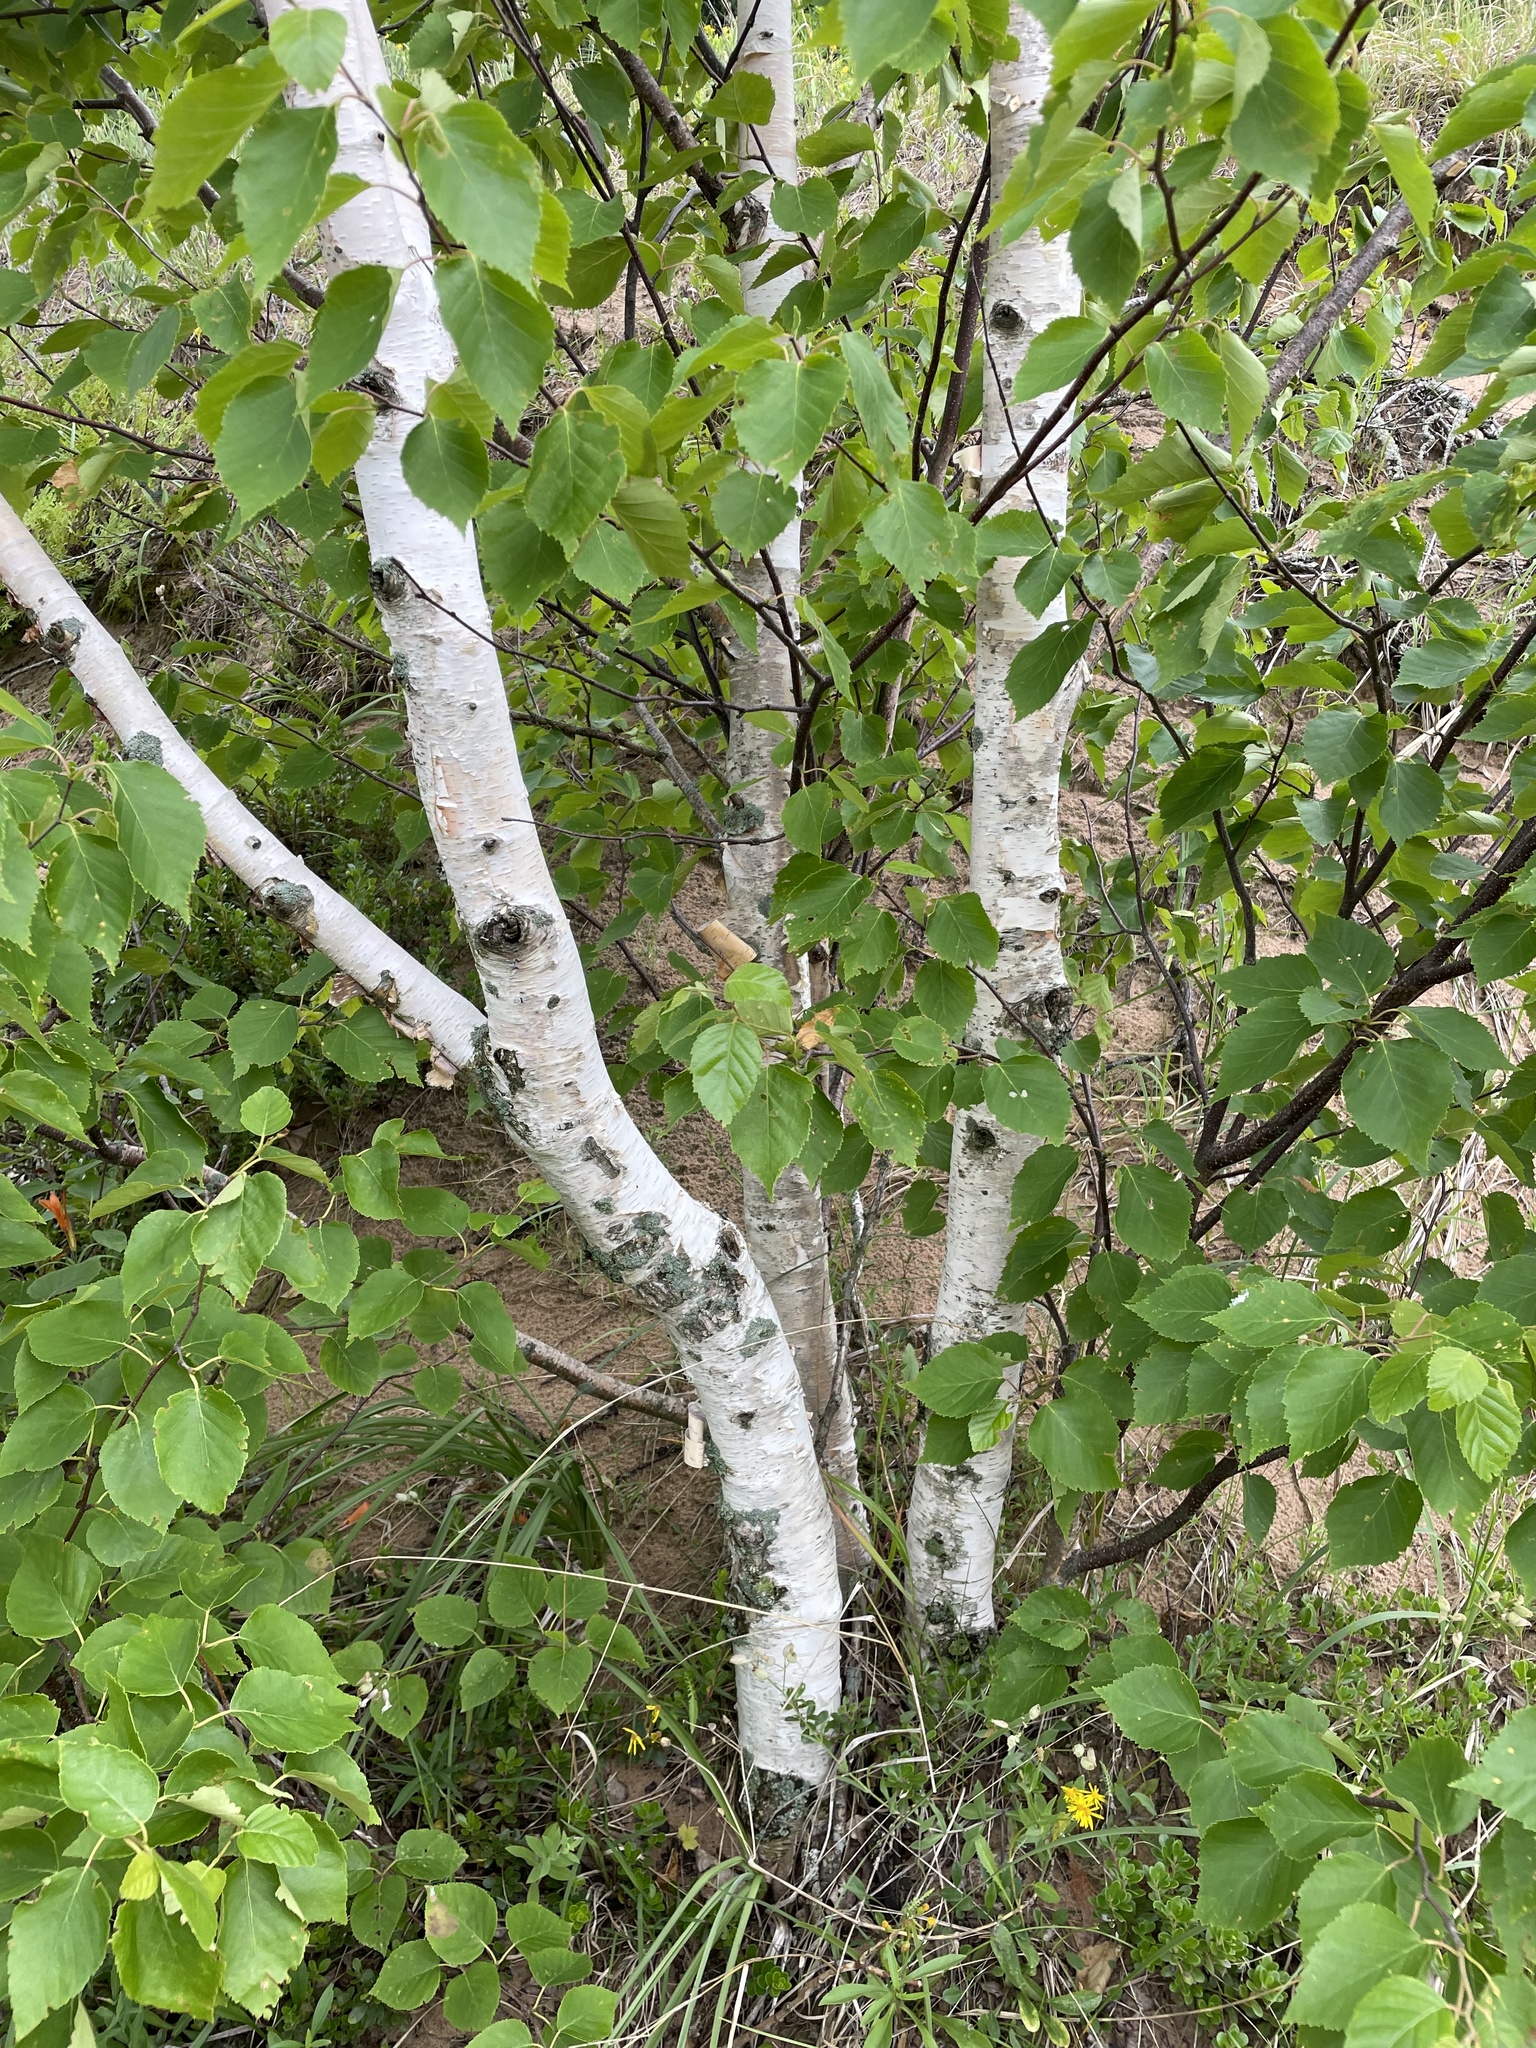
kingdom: Plantae
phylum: Tracheophyta
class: Magnoliopsida
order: Fagales
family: Betulaceae
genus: Betula
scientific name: Betula papyrifera
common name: Paper birch
